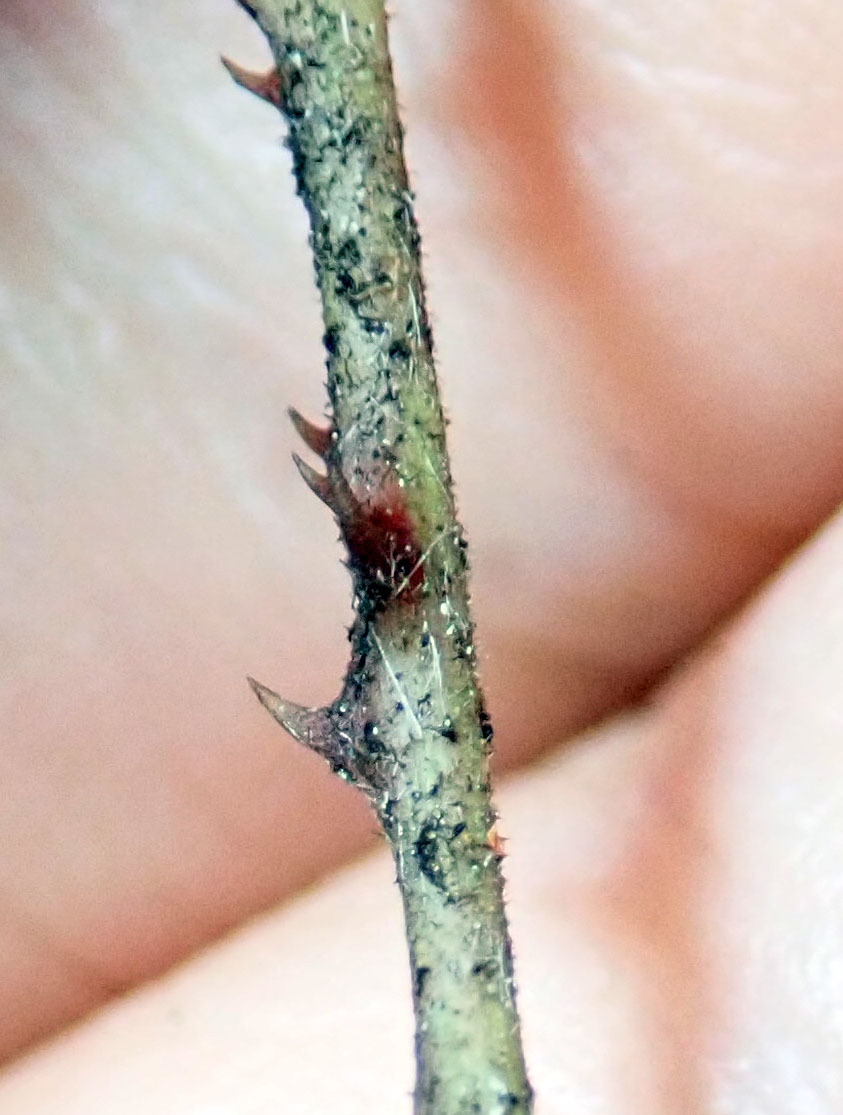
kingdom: Plantae
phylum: Tracheophyta
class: Magnoliopsida
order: Rosales
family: Rosaceae
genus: Rubus
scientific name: Rubus australis
